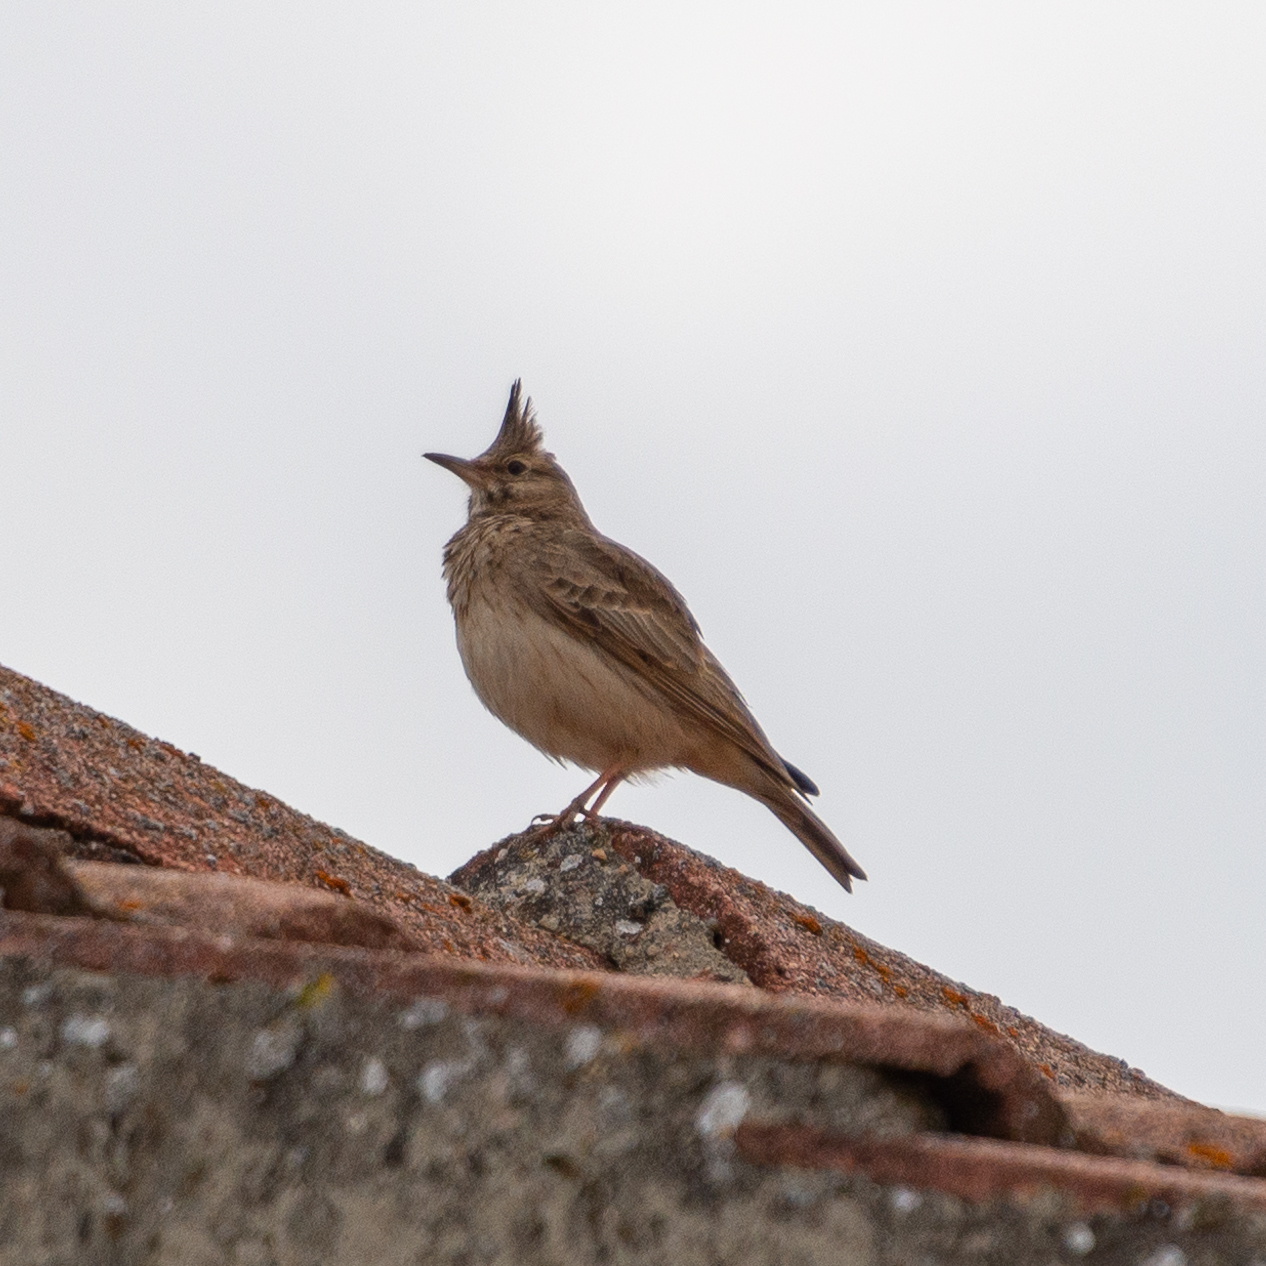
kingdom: Animalia
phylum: Chordata
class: Aves
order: Passeriformes
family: Alaudidae
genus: Galerida
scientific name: Galerida cristata
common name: Crested lark
